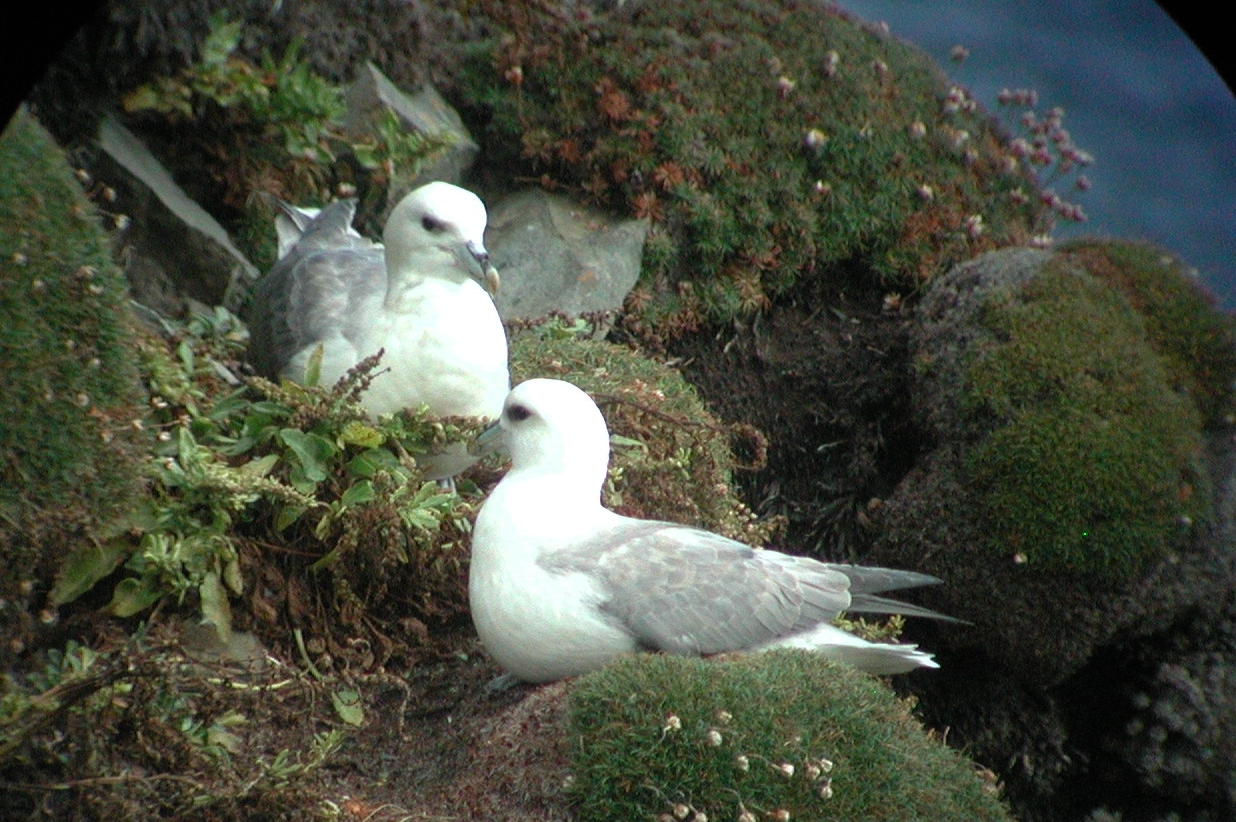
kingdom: Animalia
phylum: Chordata
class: Aves
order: Procellariiformes
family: Procellariidae
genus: Fulmarus
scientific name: Fulmarus glacialis
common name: Northern fulmar
